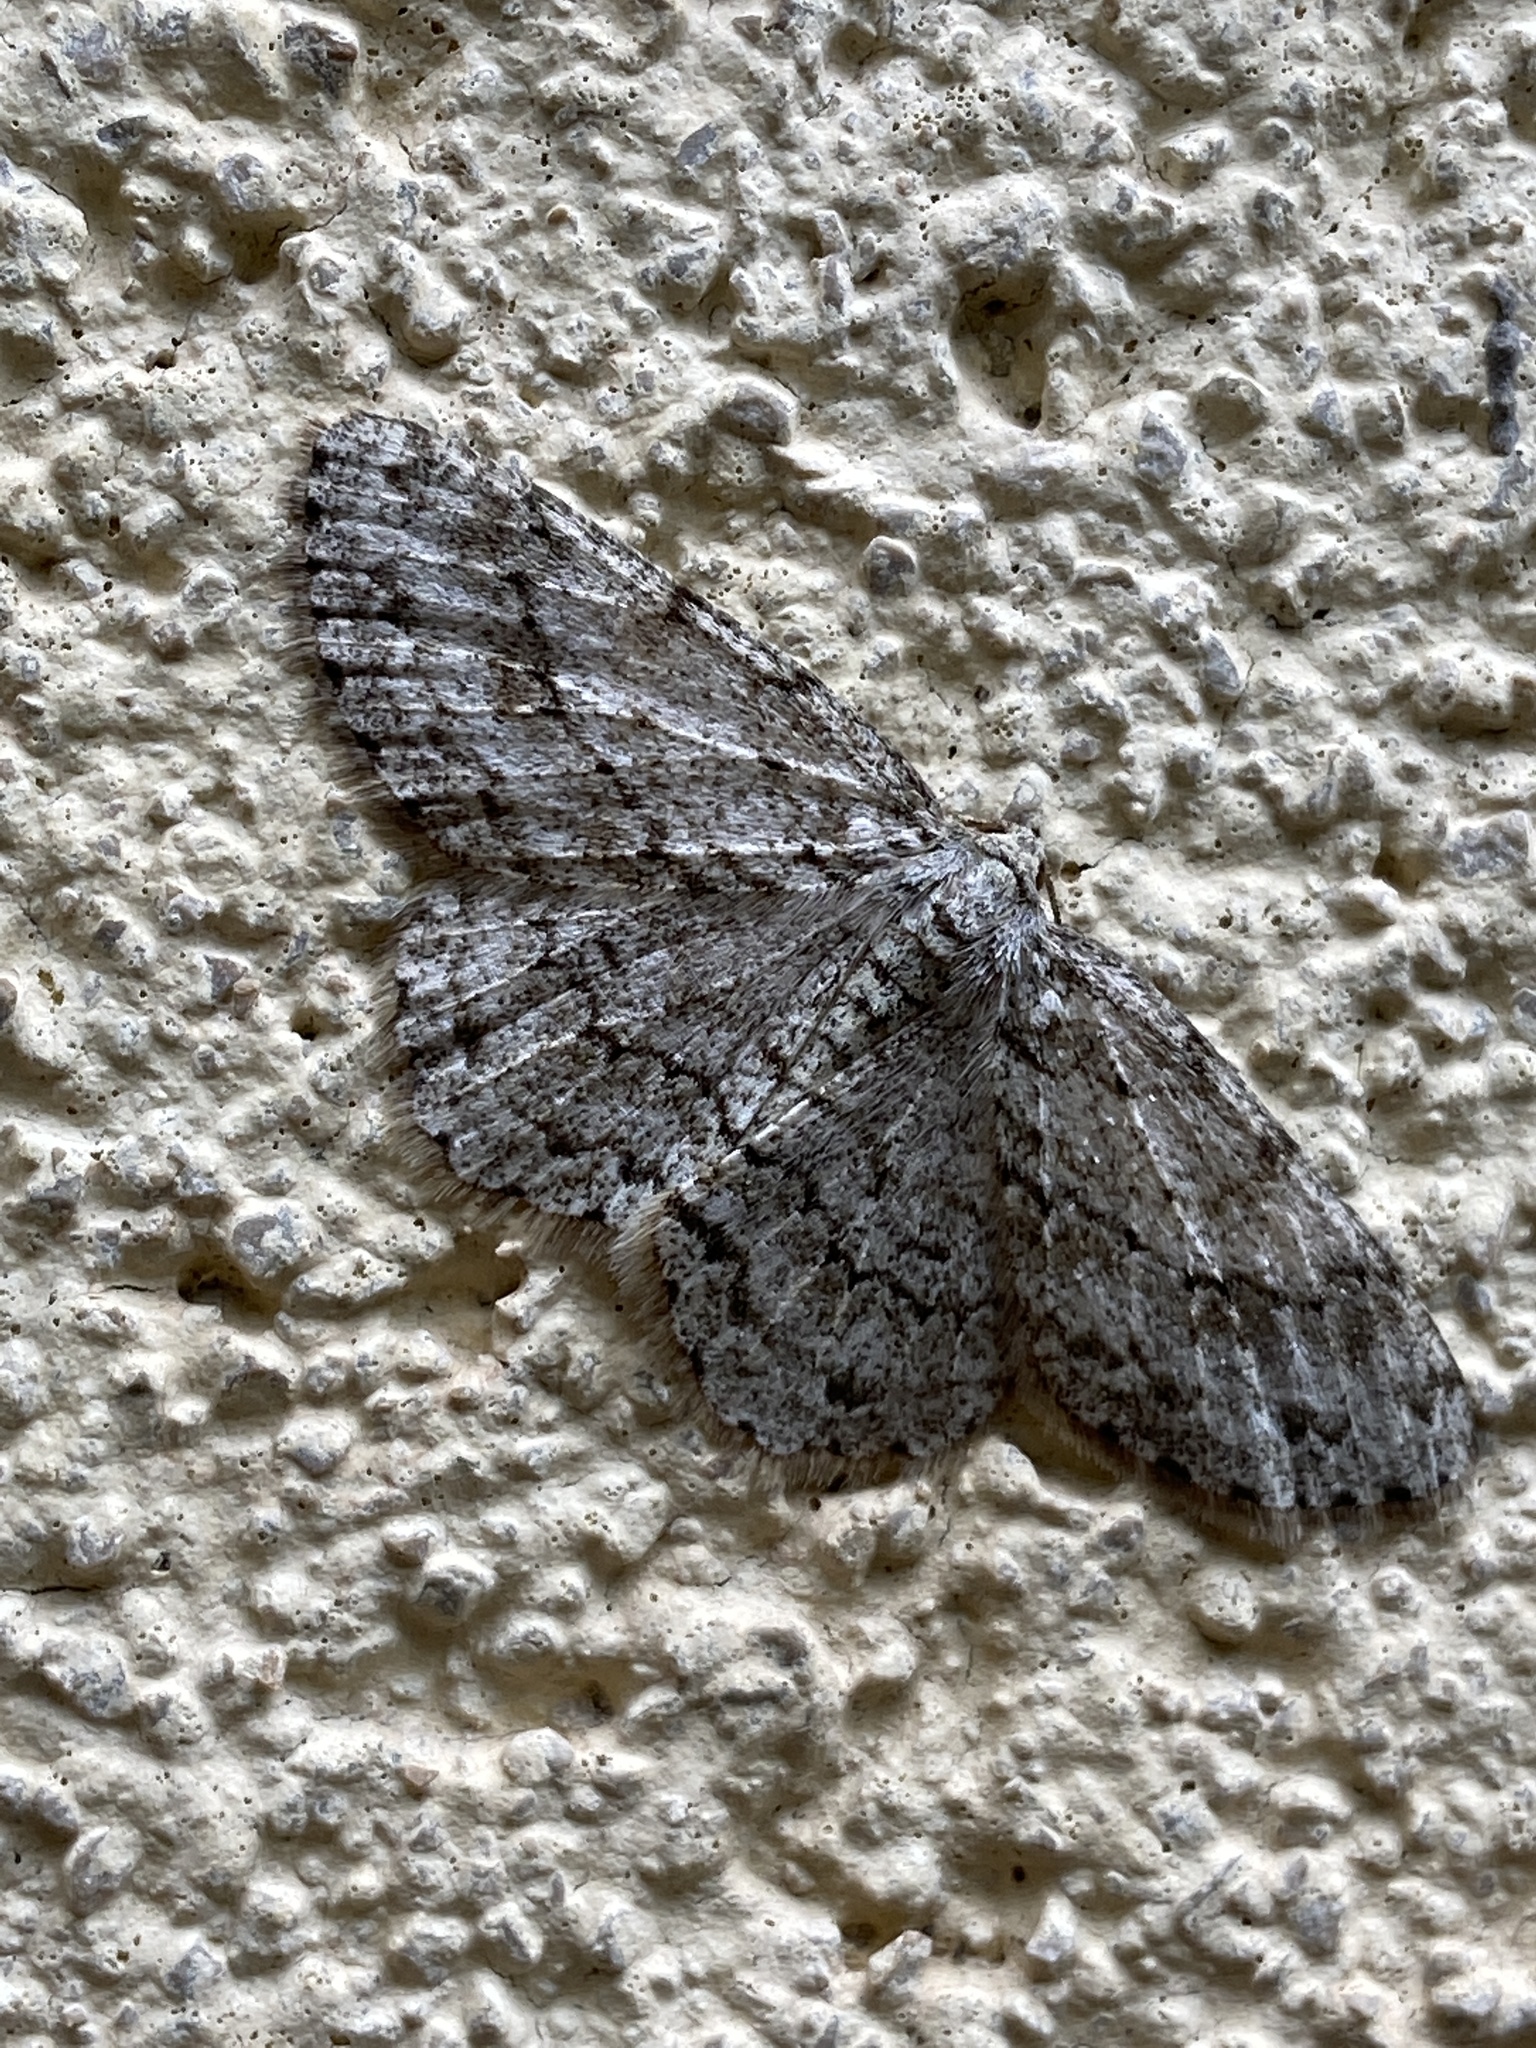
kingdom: Animalia
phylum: Arthropoda
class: Insecta
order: Lepidoptera
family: Geometridae
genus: Ectropis
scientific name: Ectropis crepuscularia
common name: Engrailed
